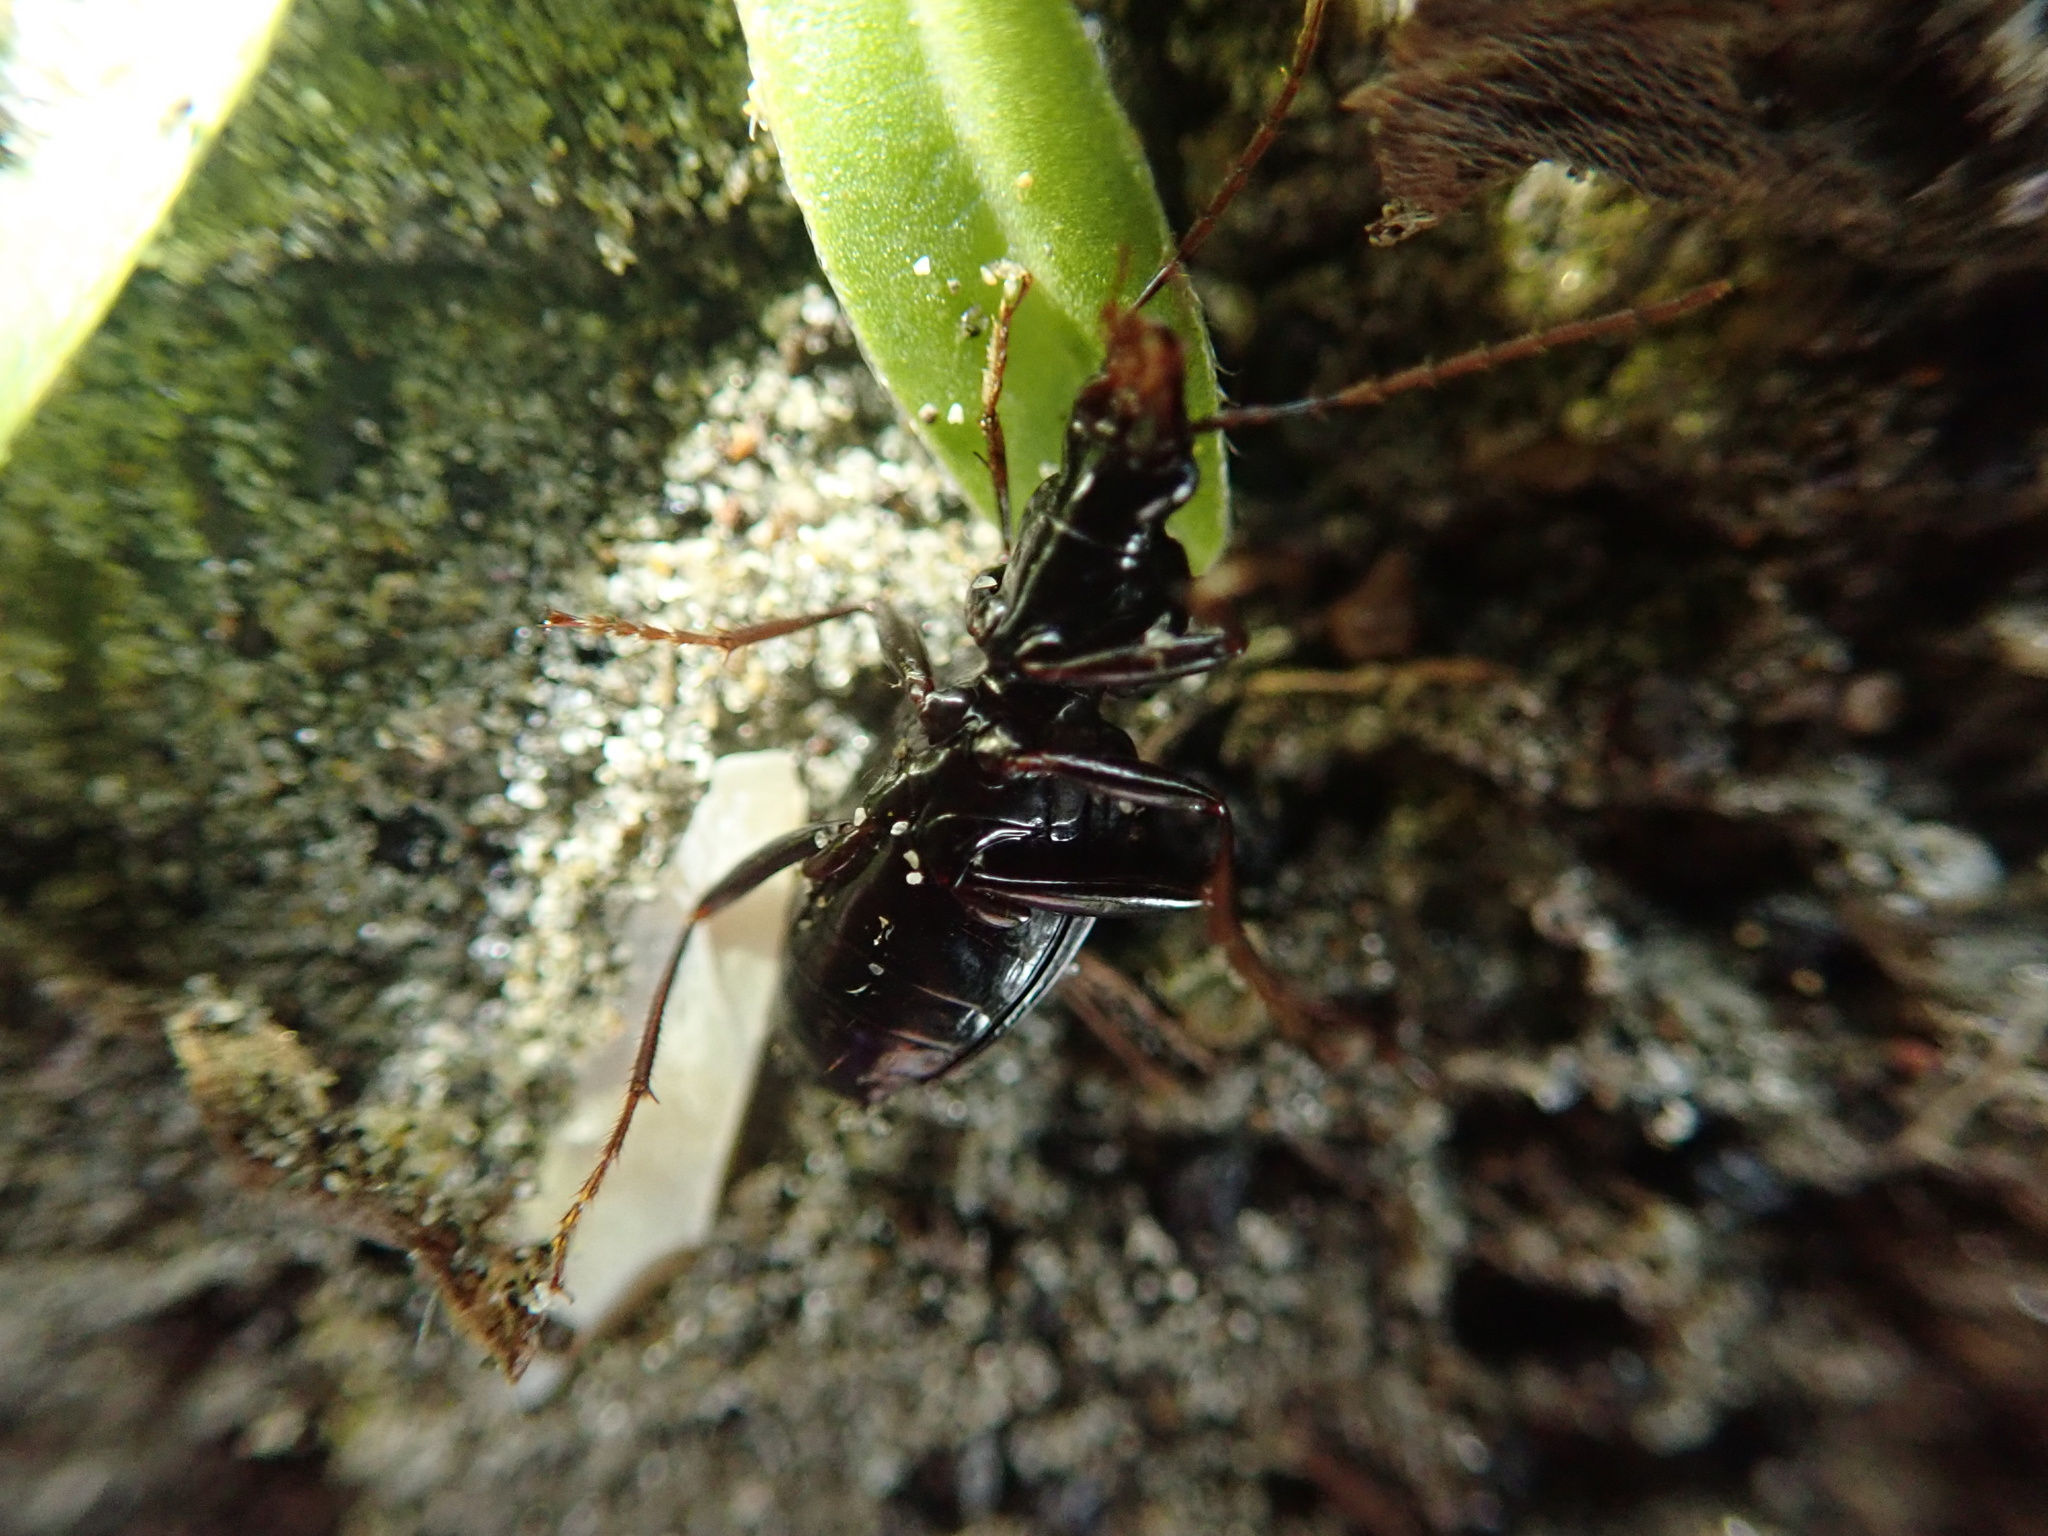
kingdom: Animalia
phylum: Arthropoda
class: Insecta
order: Coleoptera
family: Carabidae
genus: Ctenognathus
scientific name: Ctenognathus novaezelandiae
